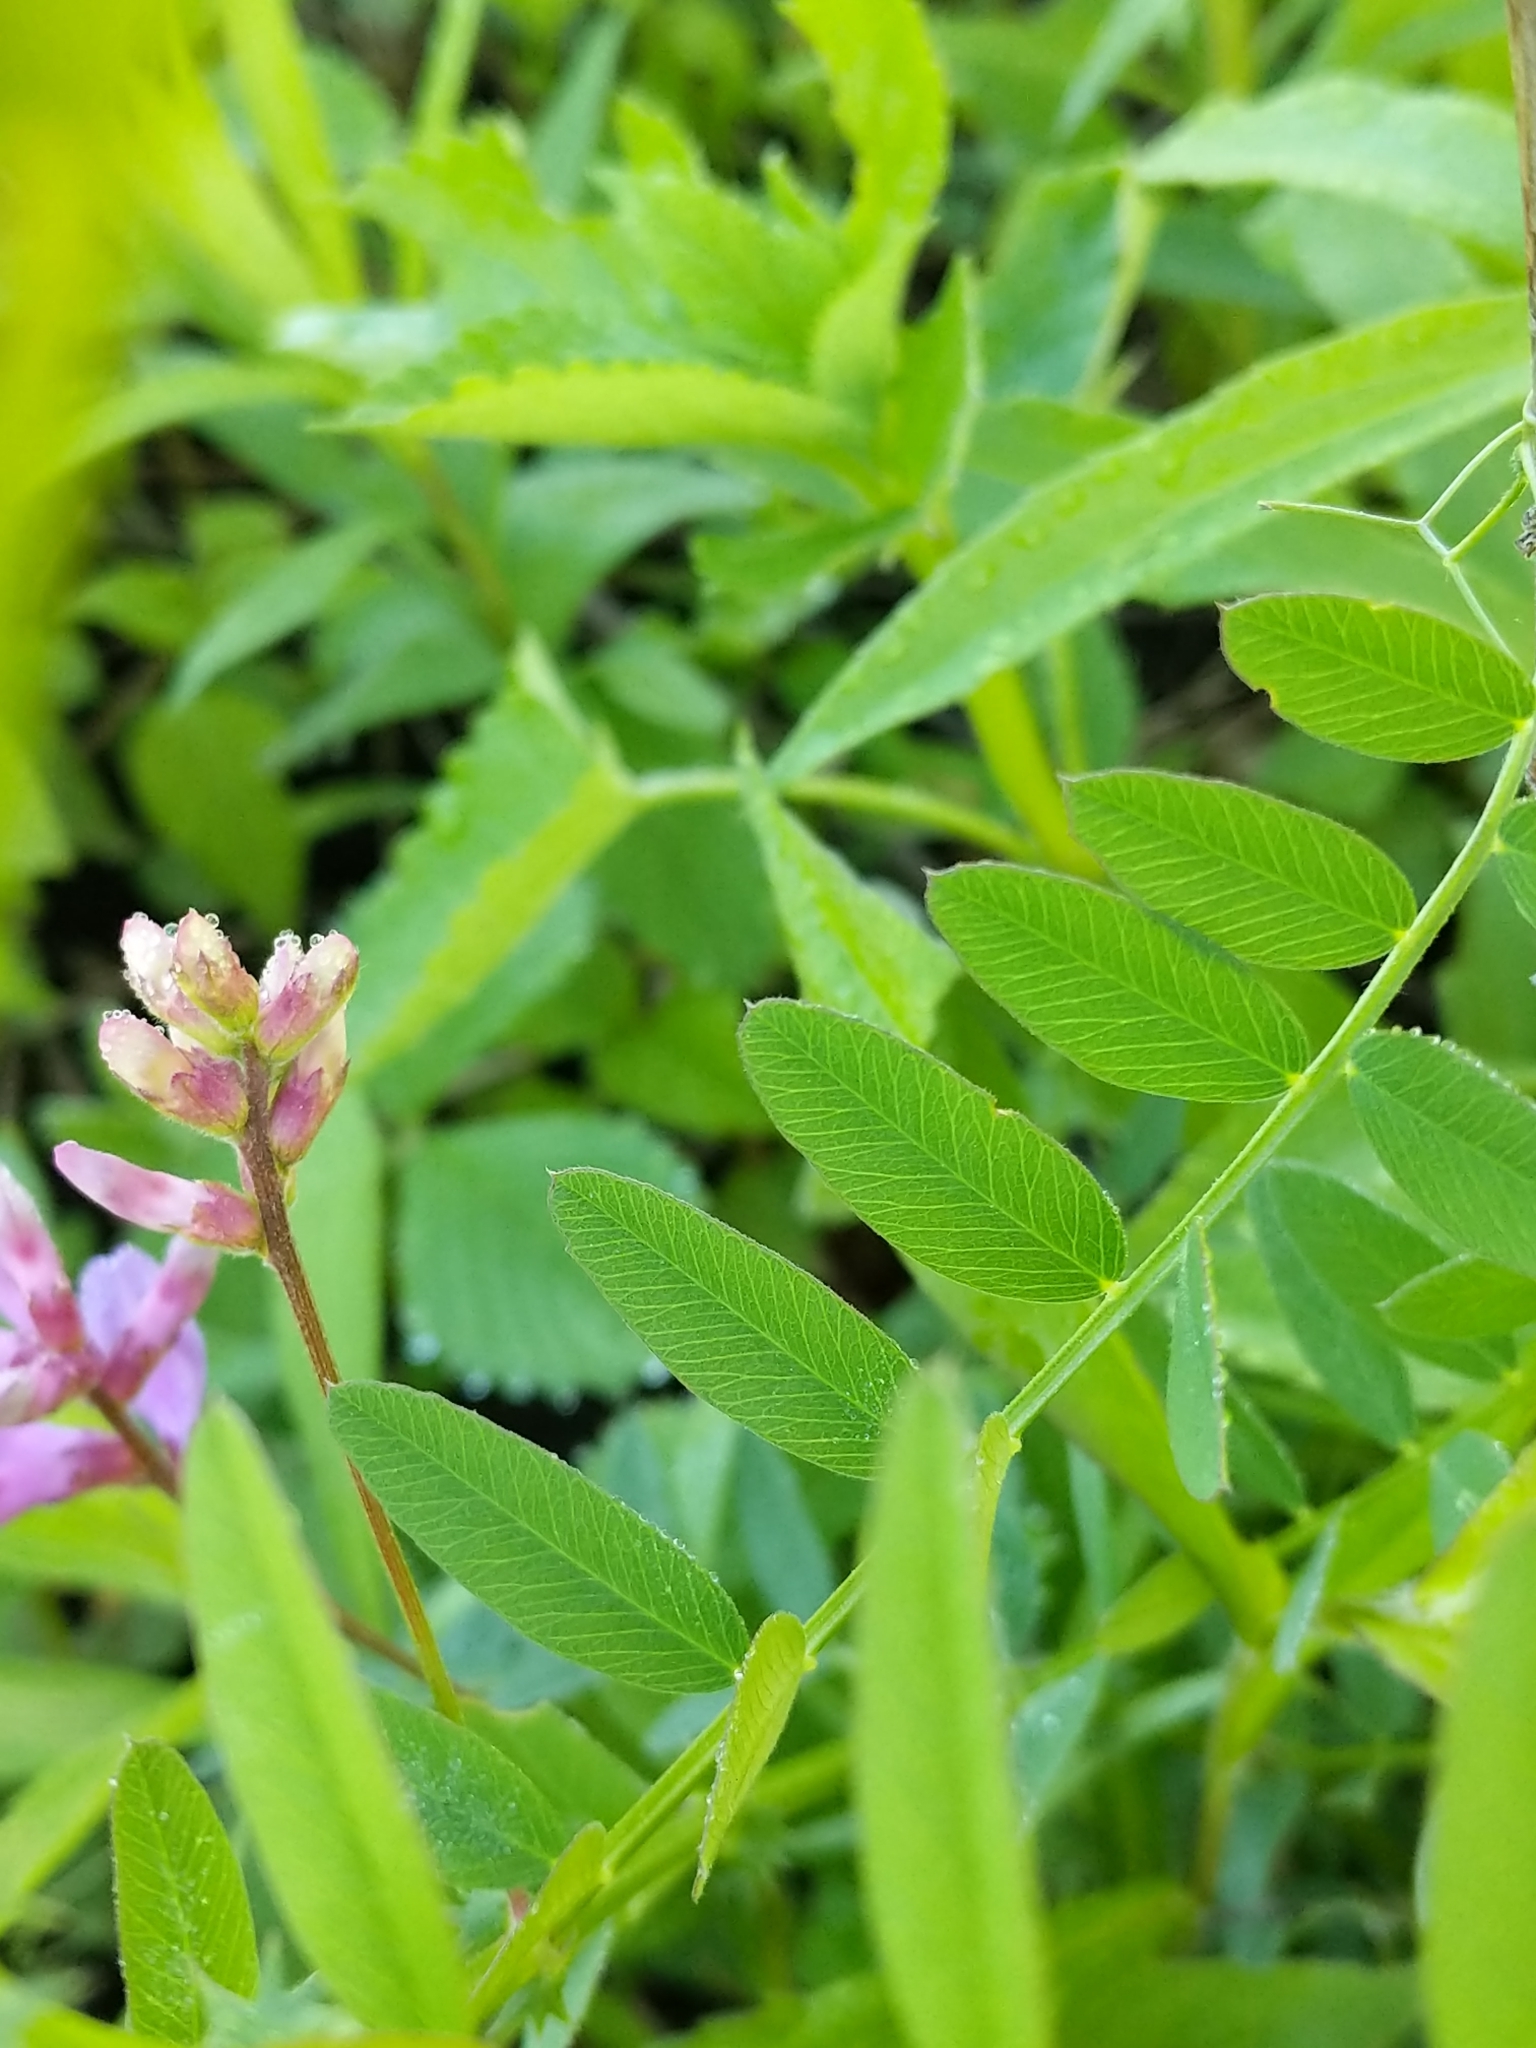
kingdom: Plantae
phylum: Tracheophyta
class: Magnoliopsida
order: Fabales
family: Fabaceae
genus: Vicia
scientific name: Vicia americana
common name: American vetch
